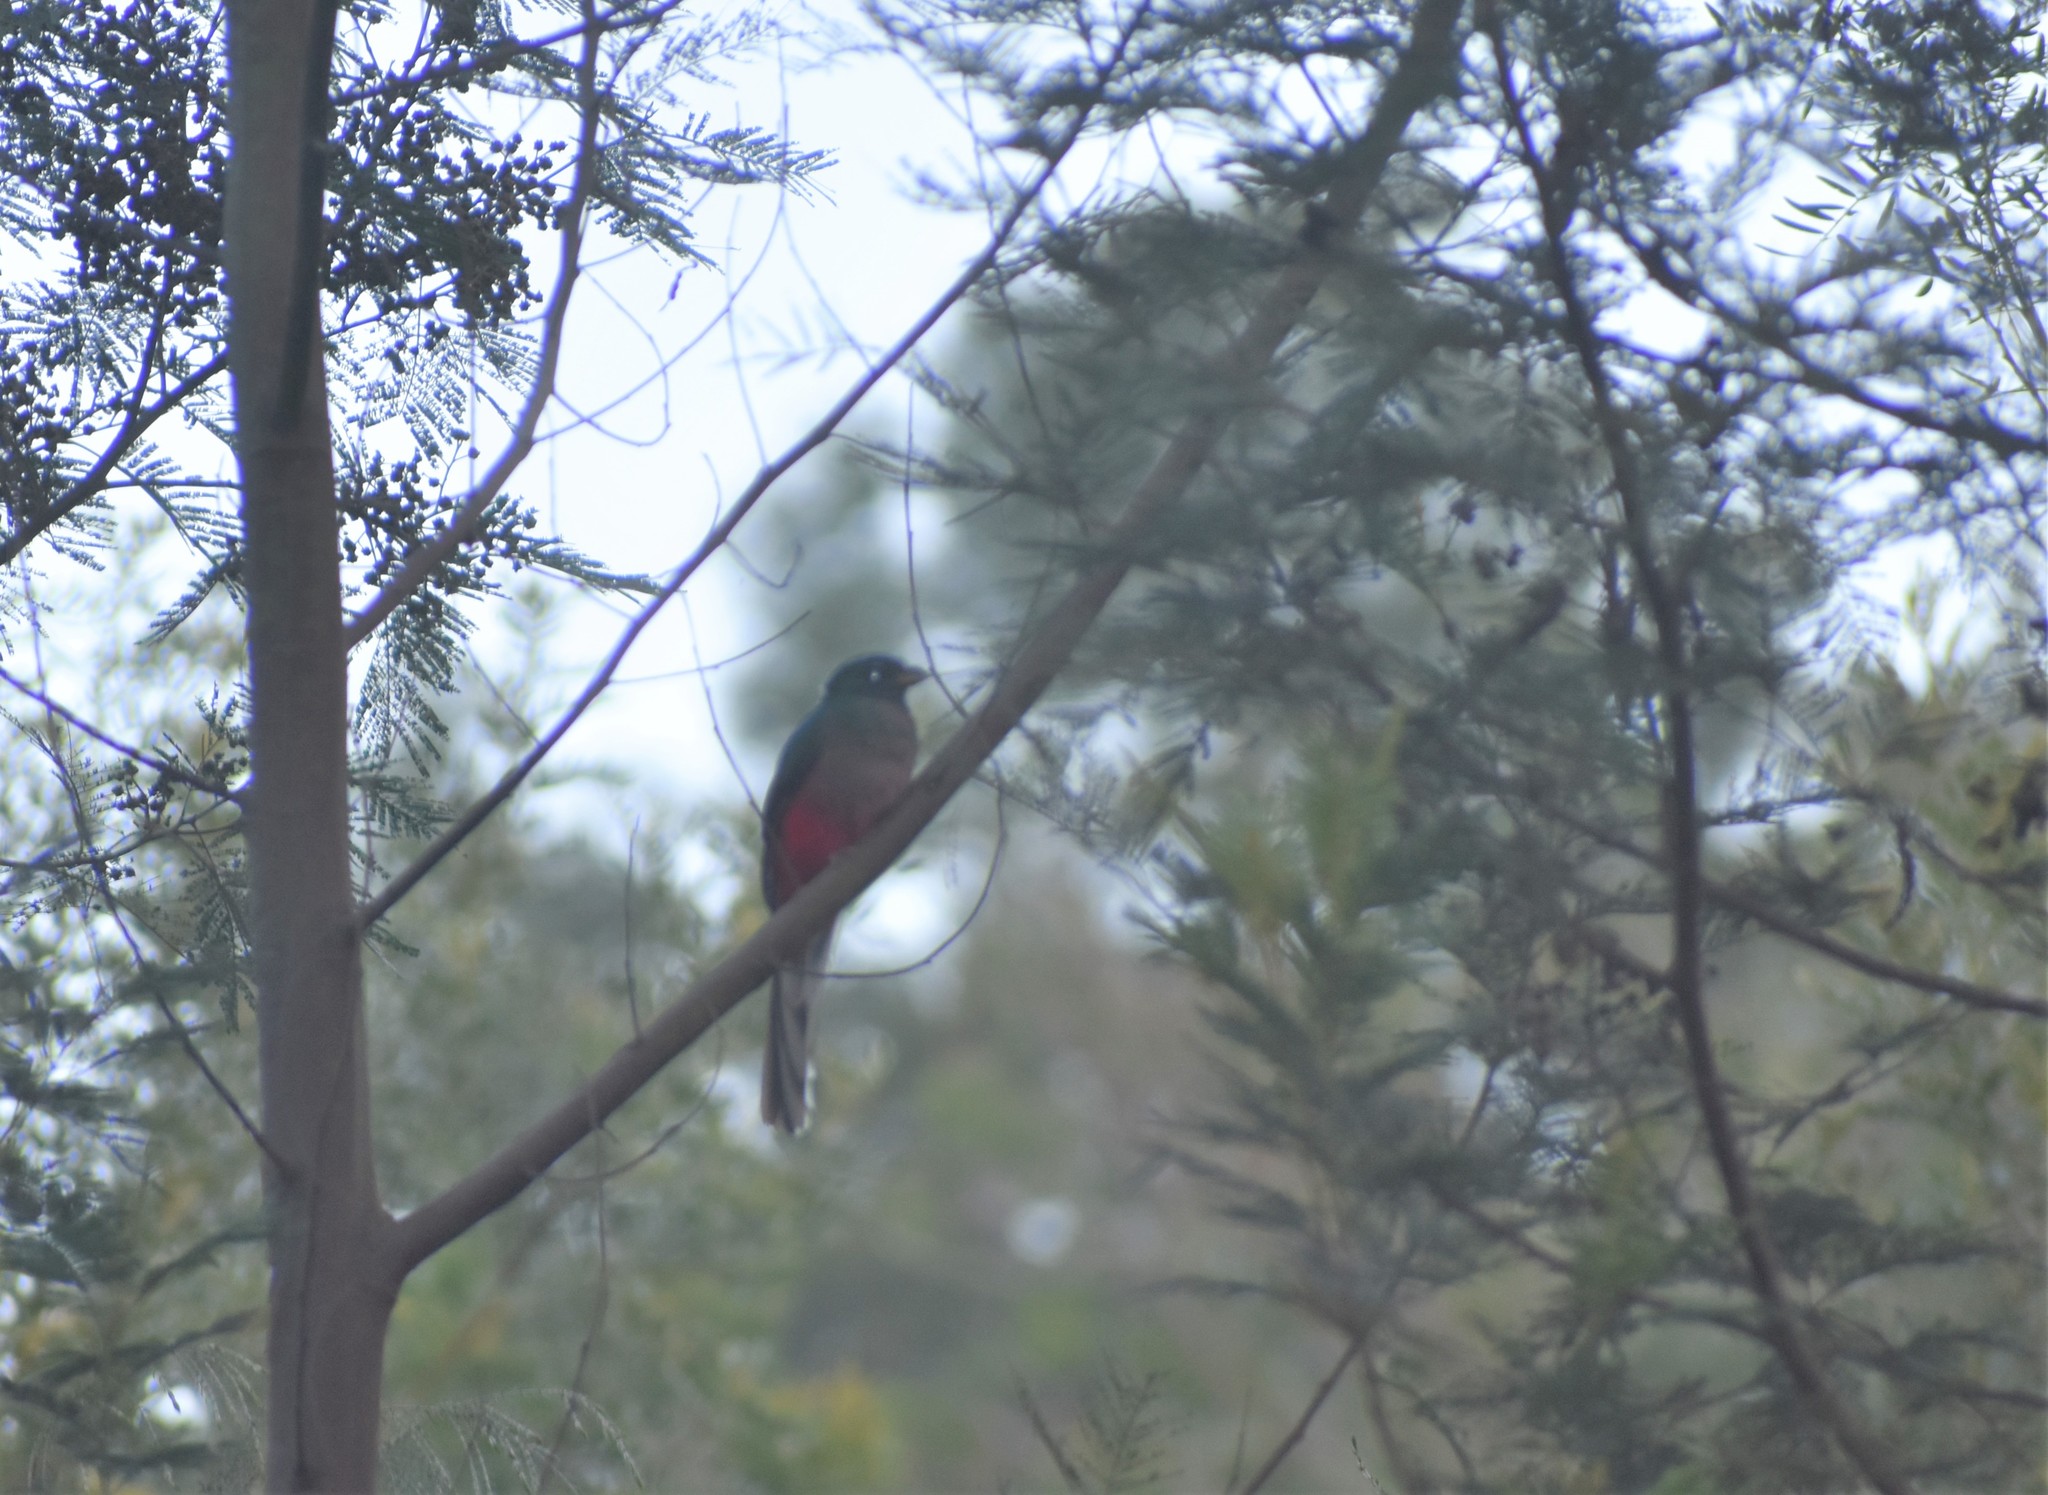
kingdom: Animalia
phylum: Chordata
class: Aves
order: Trogoniformes
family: Trogonidae
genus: Apaloderma
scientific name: Apaloderma narina
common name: Narina trogon
